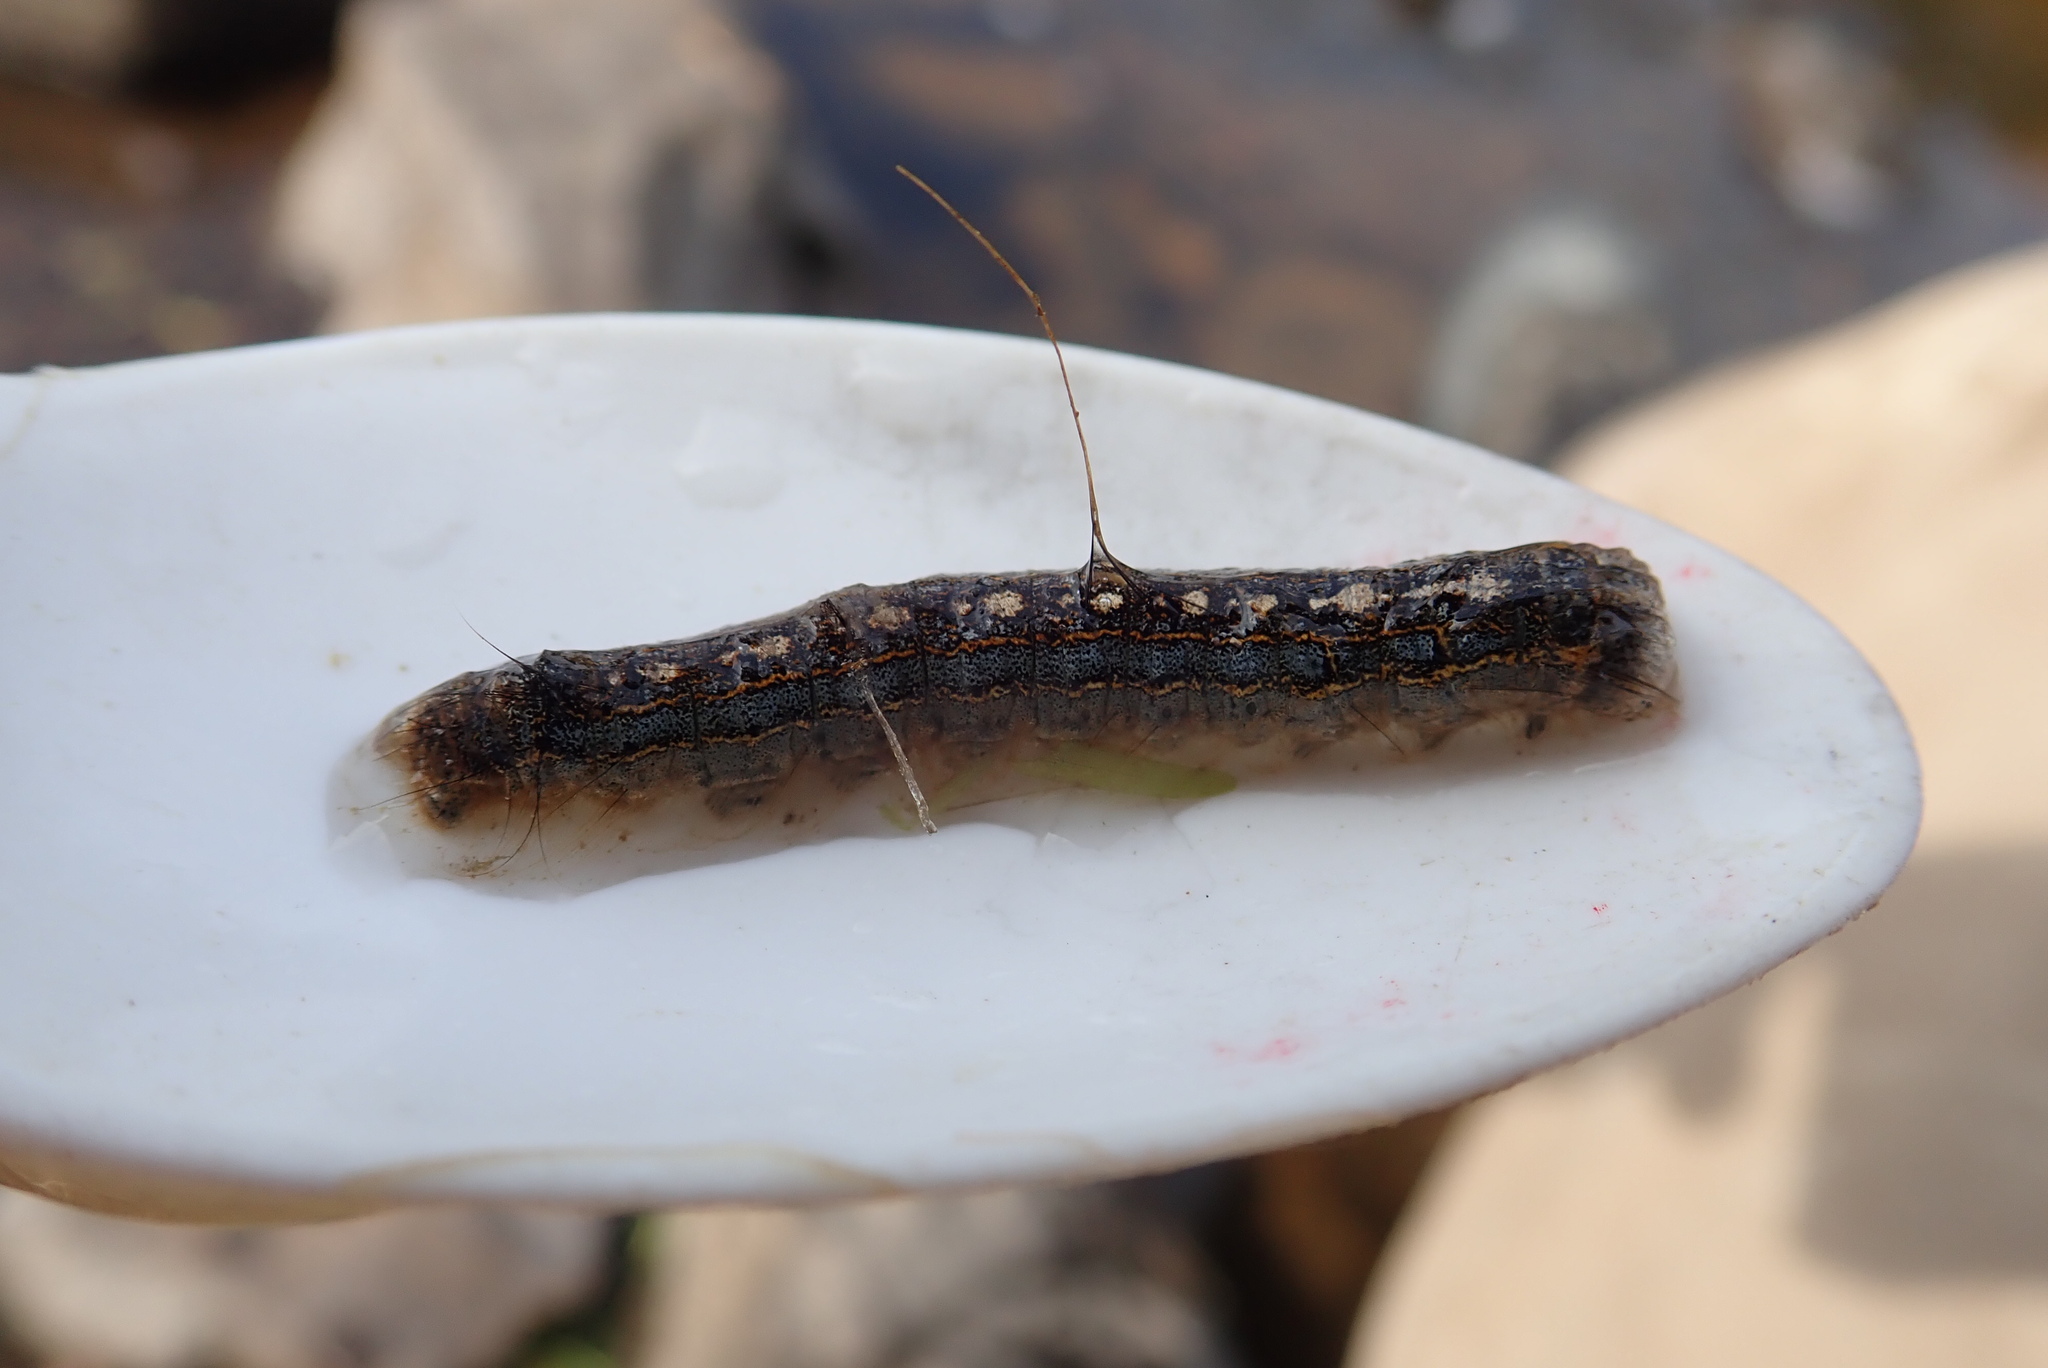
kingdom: Animalia
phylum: Arthropoda
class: Insecta
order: Lepidoptera
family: Lasiocampidae
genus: Malacosoma
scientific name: Malacosoma disstria
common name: Forest tent caterpillar
